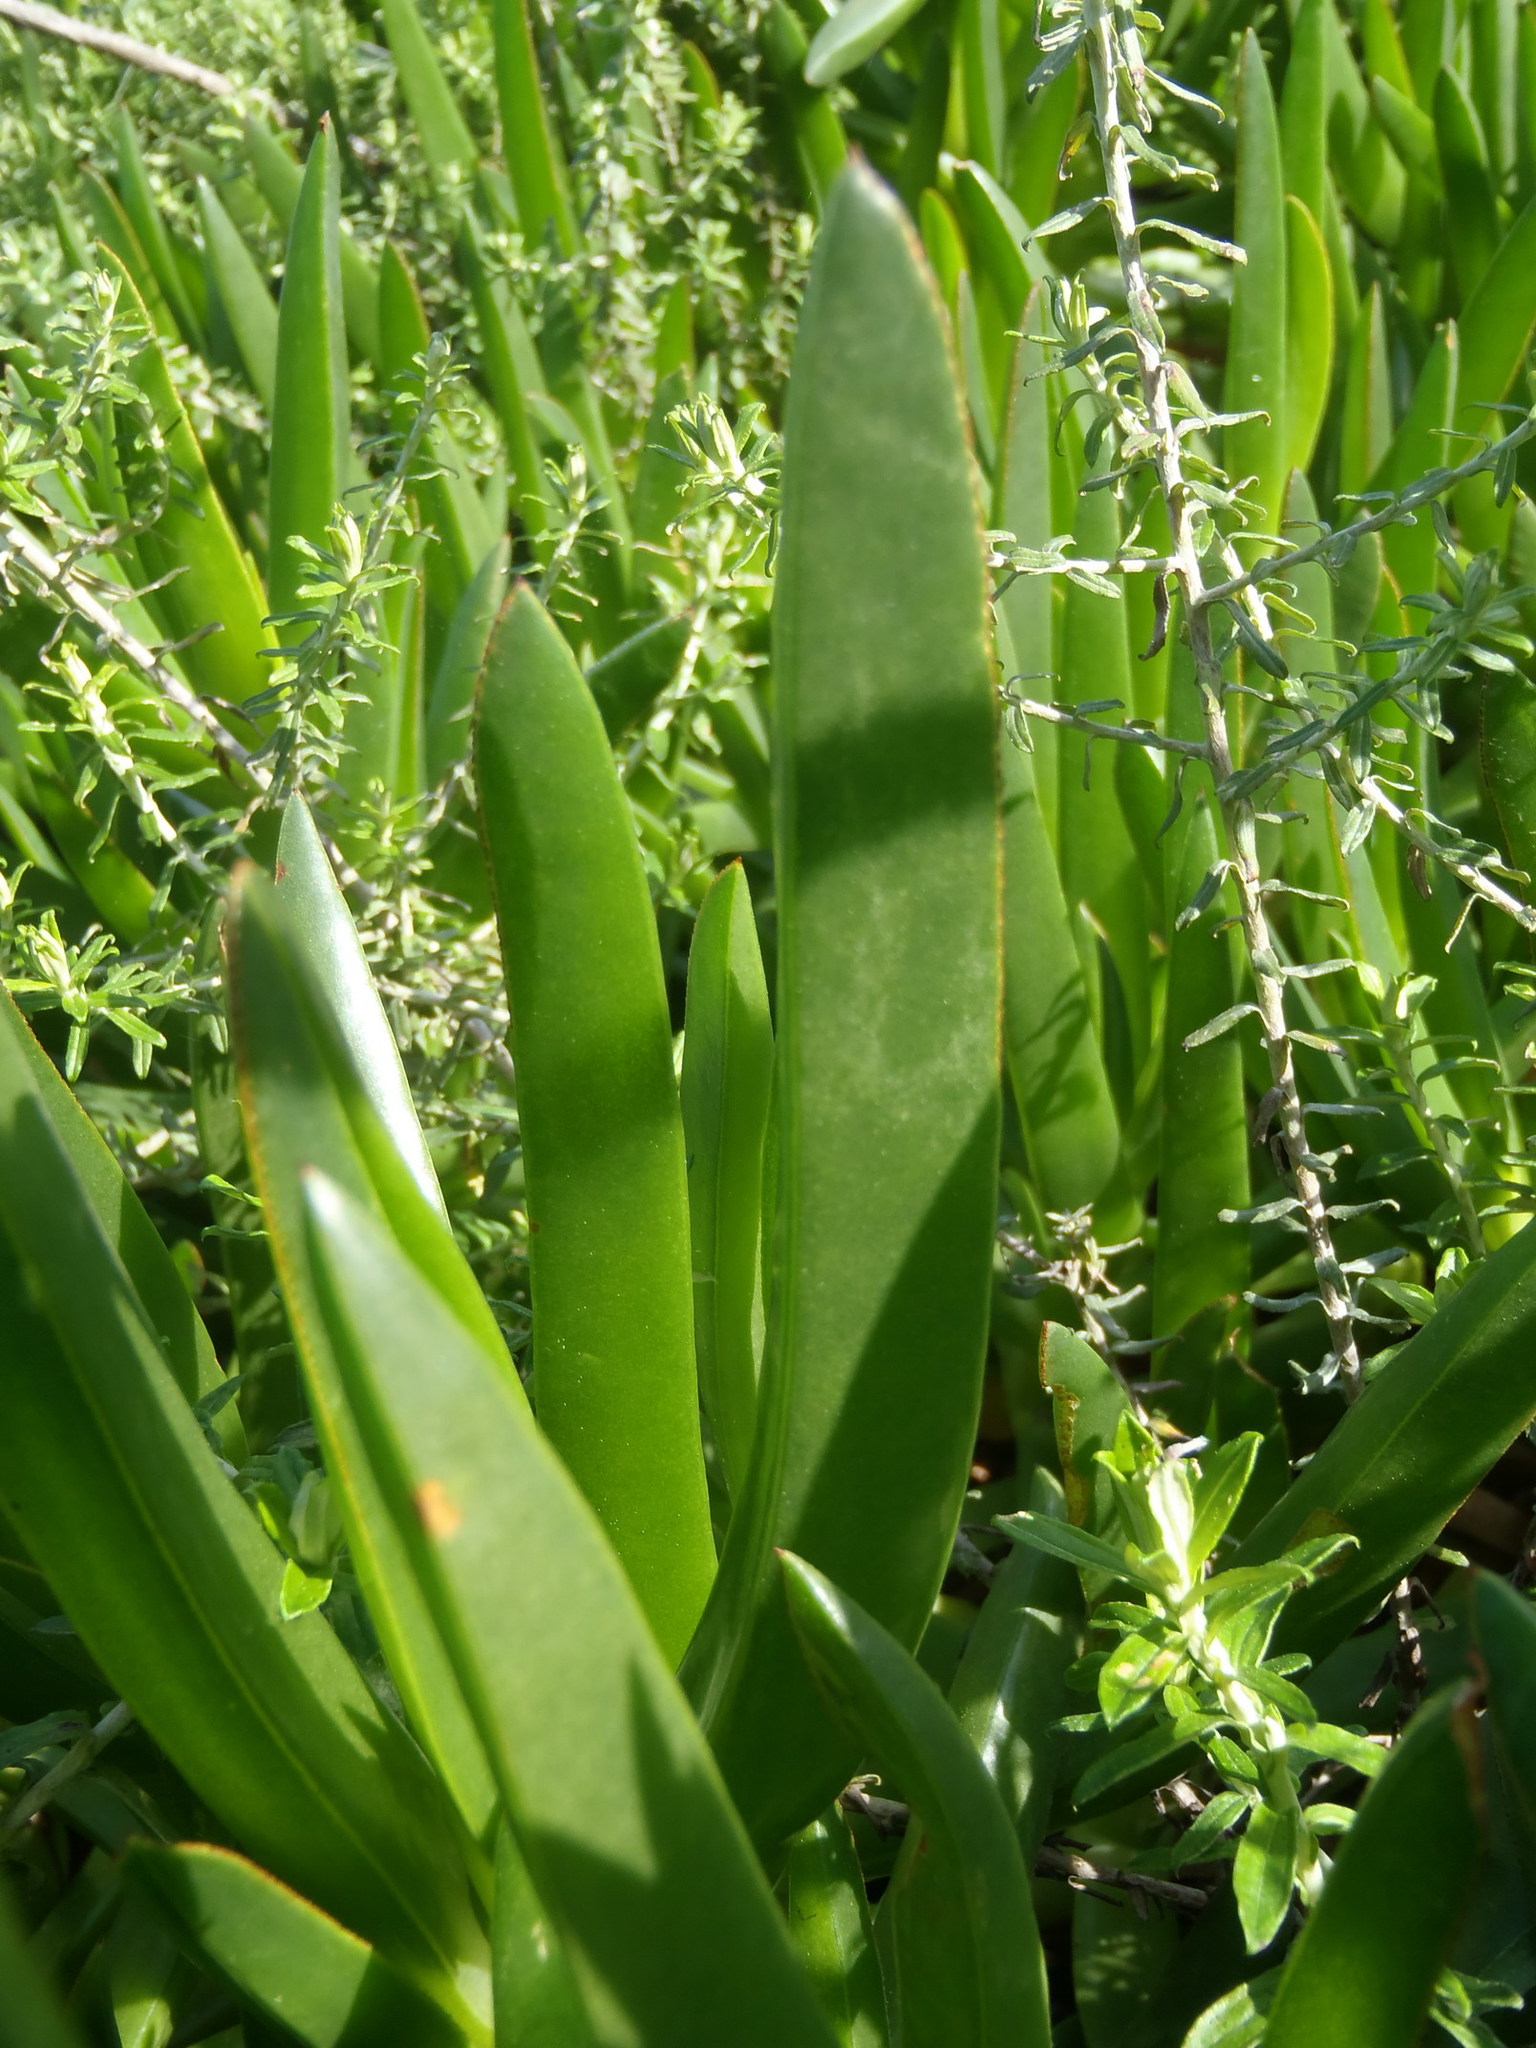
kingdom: Plantae
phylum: Tracheophyta
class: Magnoliopsida
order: Caryophyllales
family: Aizoaceae
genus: Carpobrotus
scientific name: Carpobrotus edulis
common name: Hottentot-fig
